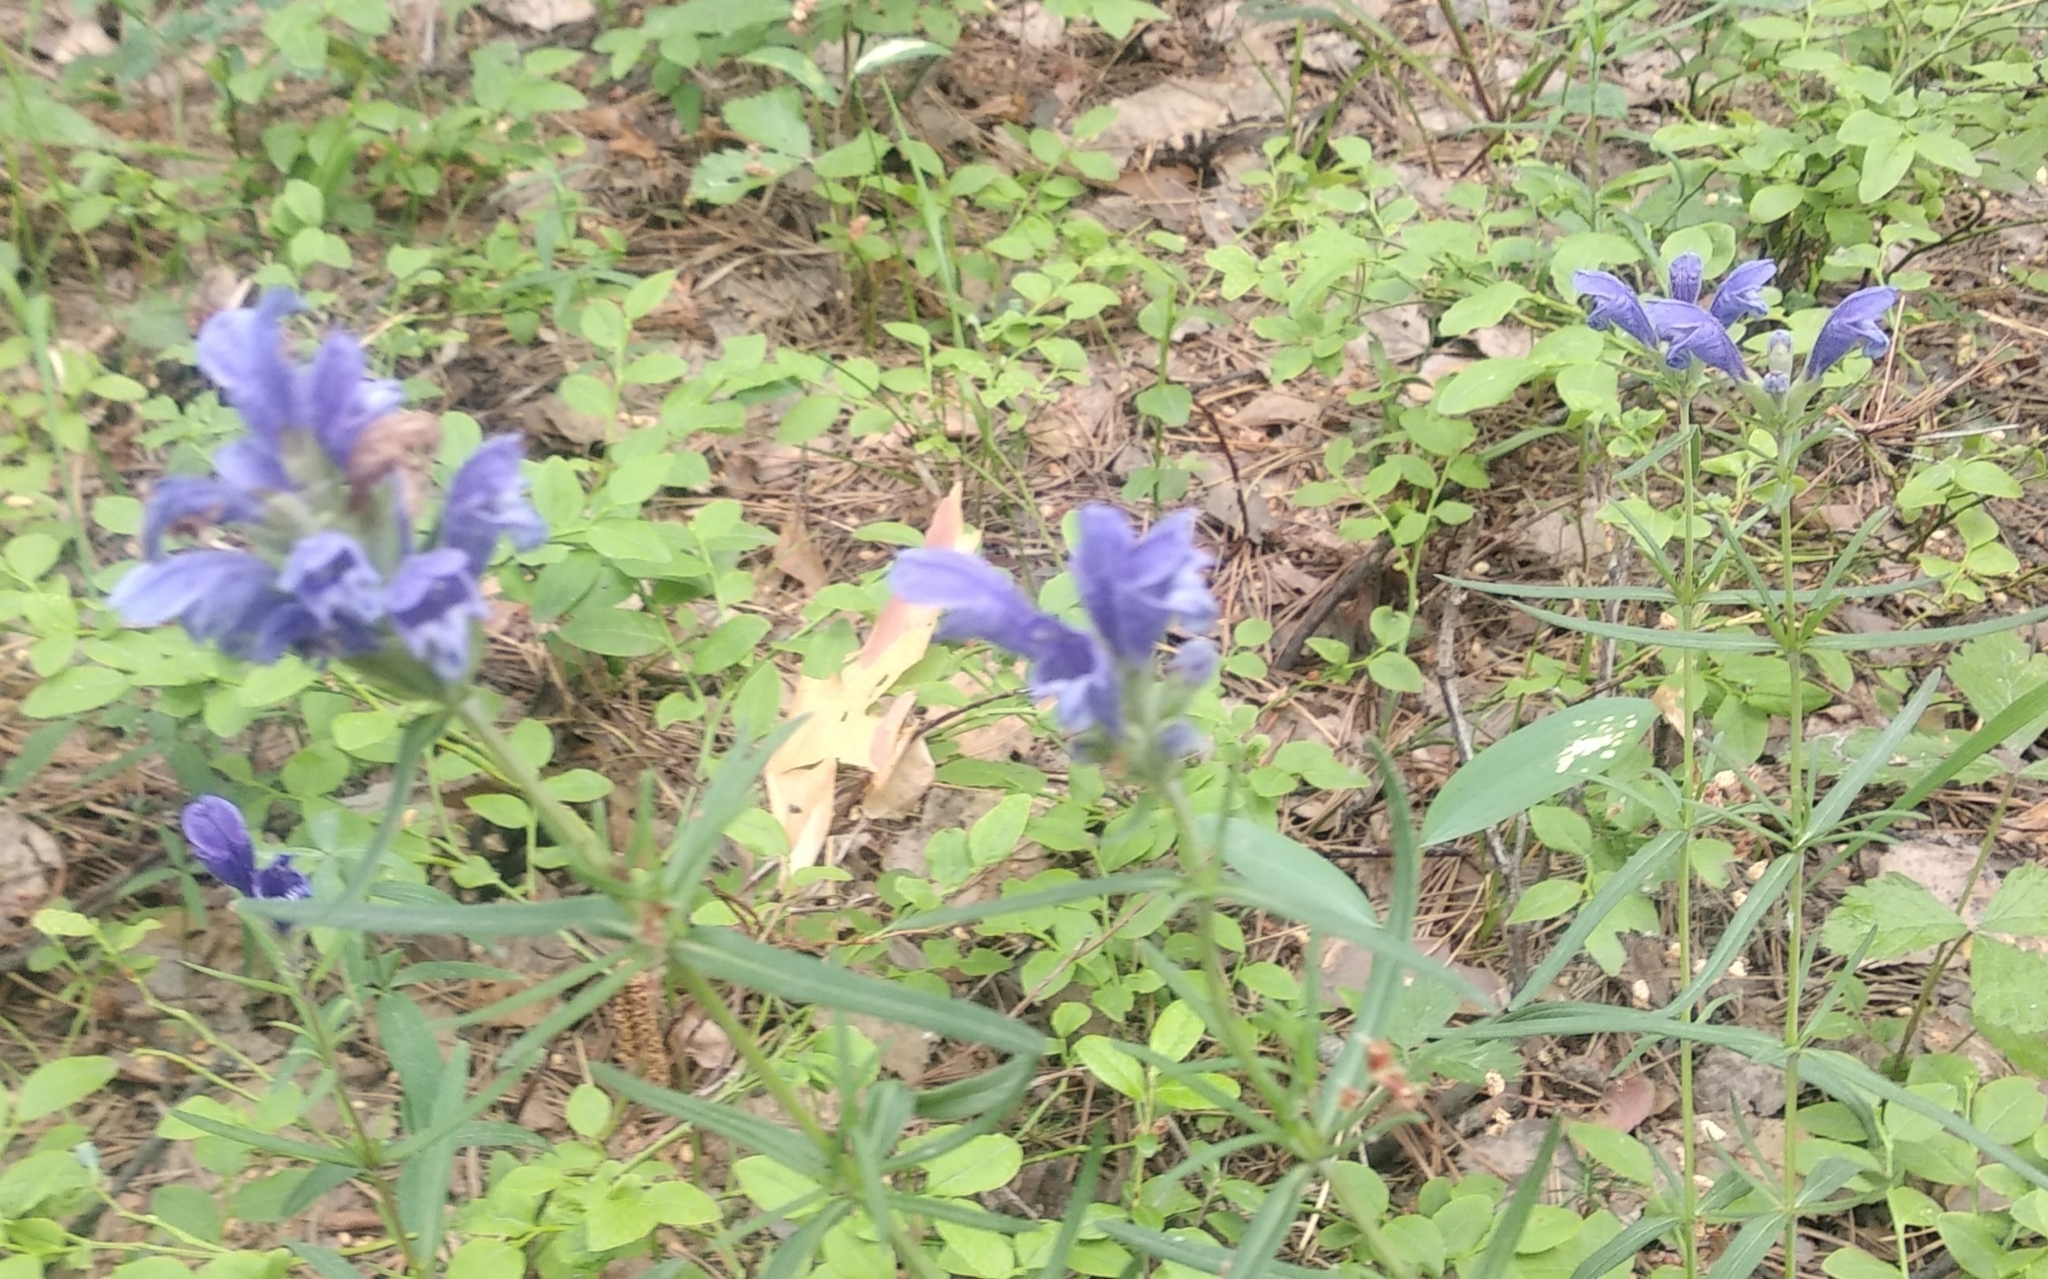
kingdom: Plantae
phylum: Tracheophyta
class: Magnoliopsida
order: Lamiales
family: Lamiaceae
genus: Dracocephalum
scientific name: Dracocephalum ruyschiana
